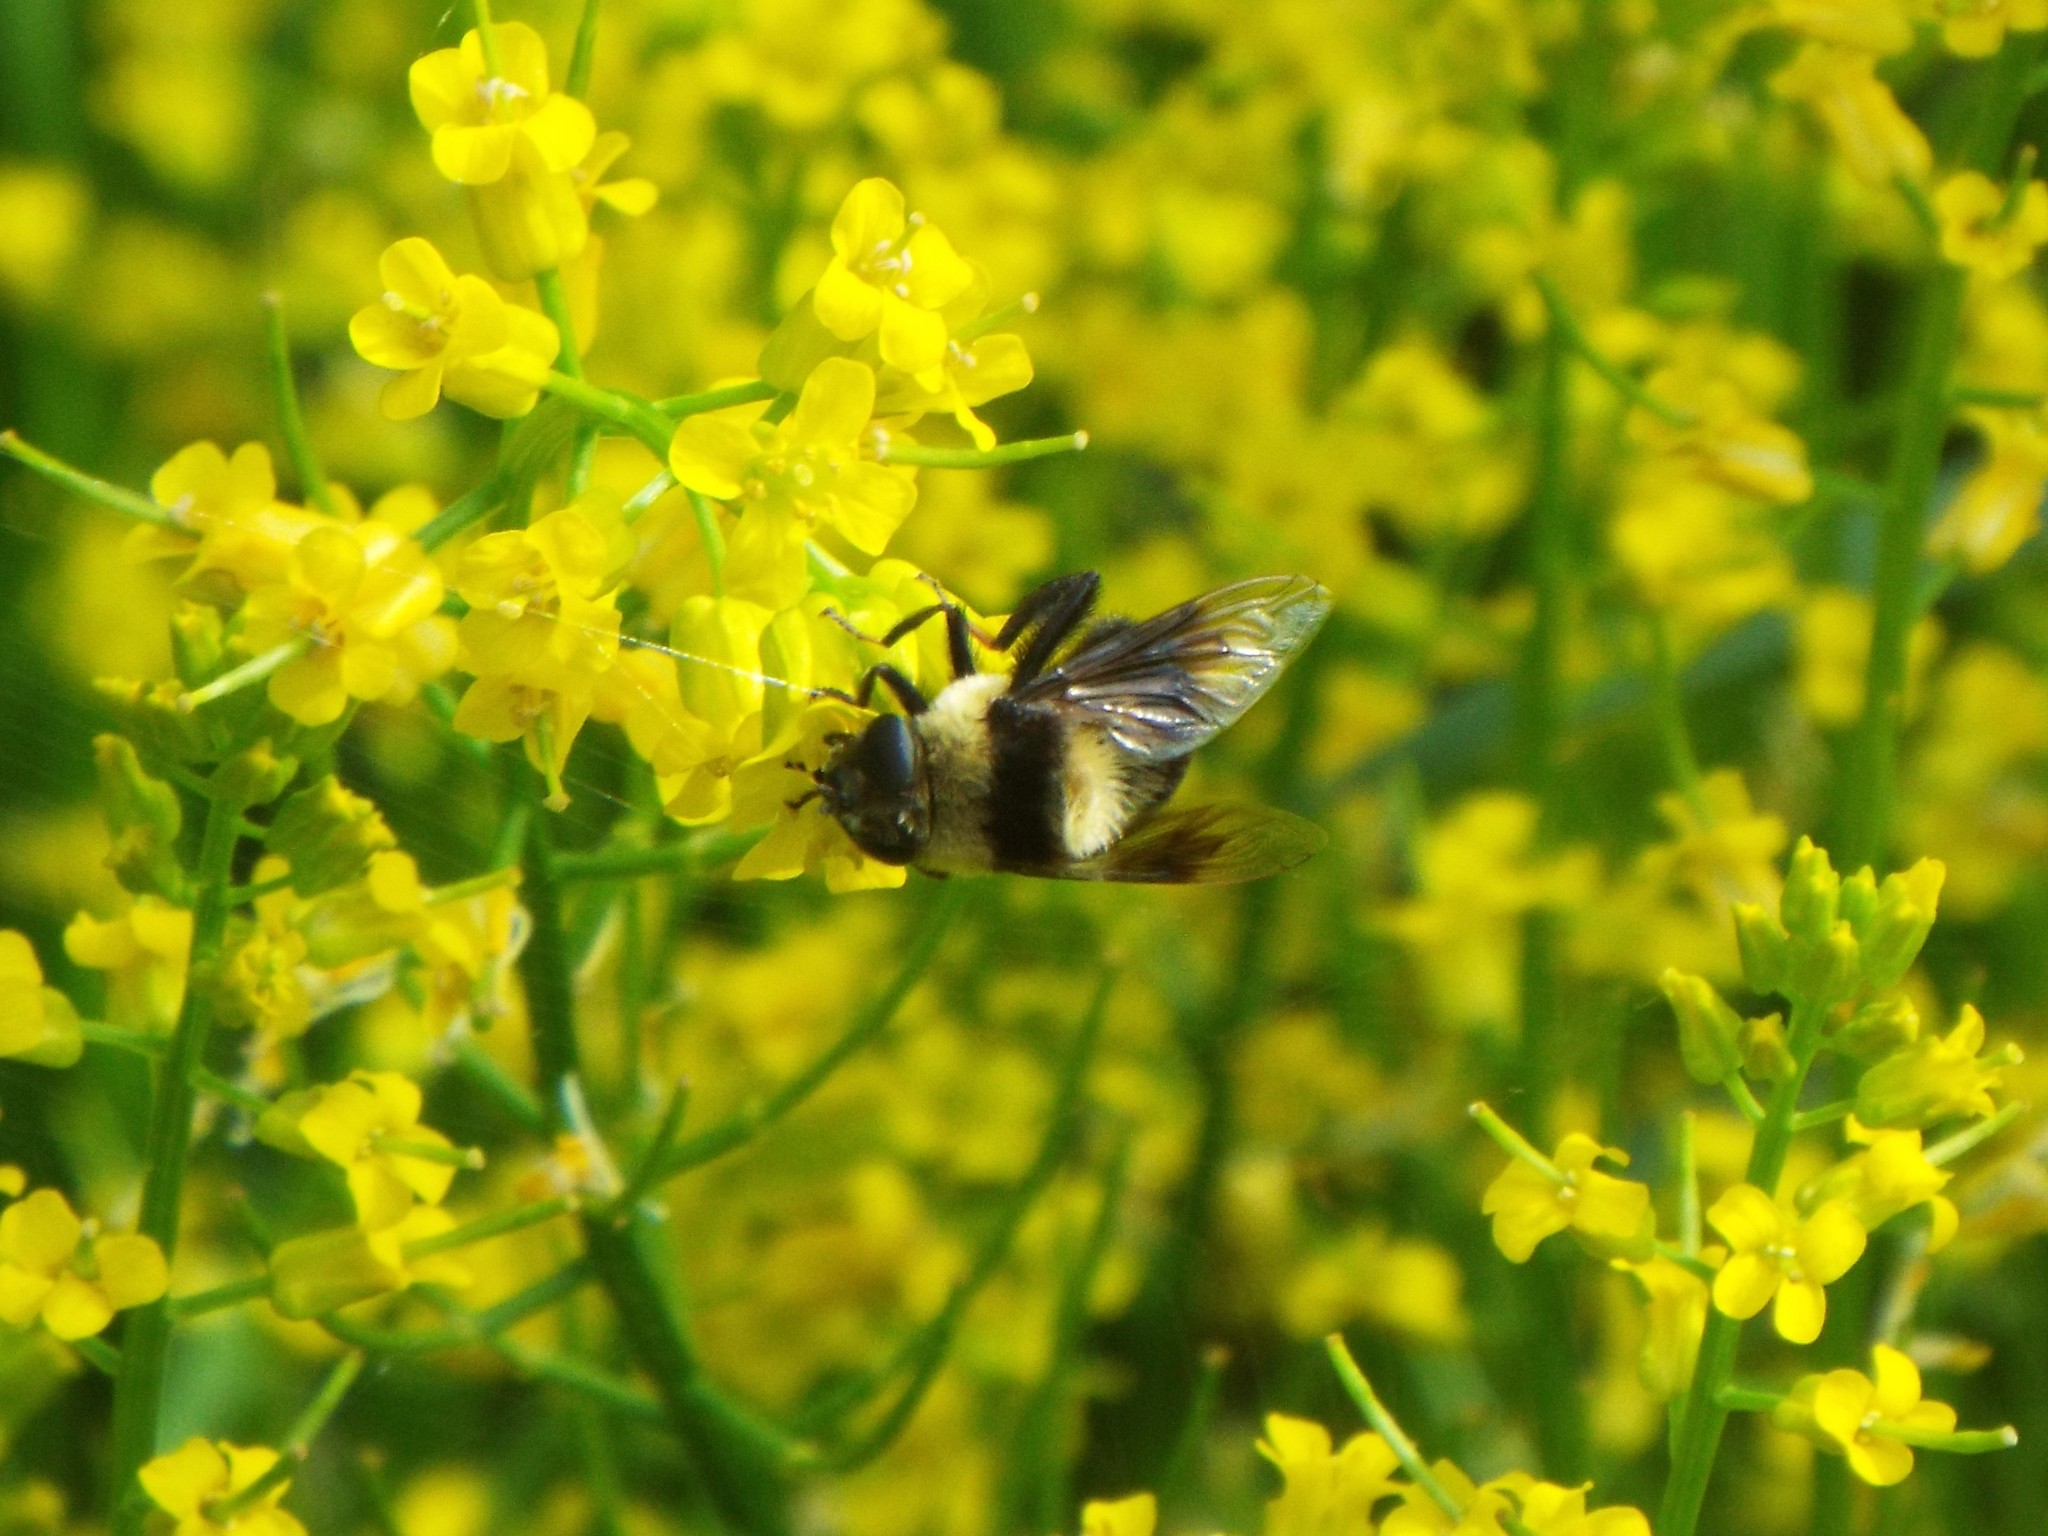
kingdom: Animalia
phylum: Arthropoda
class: Insecta
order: Diptera
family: Syrphidae
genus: Eristalis
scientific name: Eristalis flavipes
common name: Orange-legged drone fly
